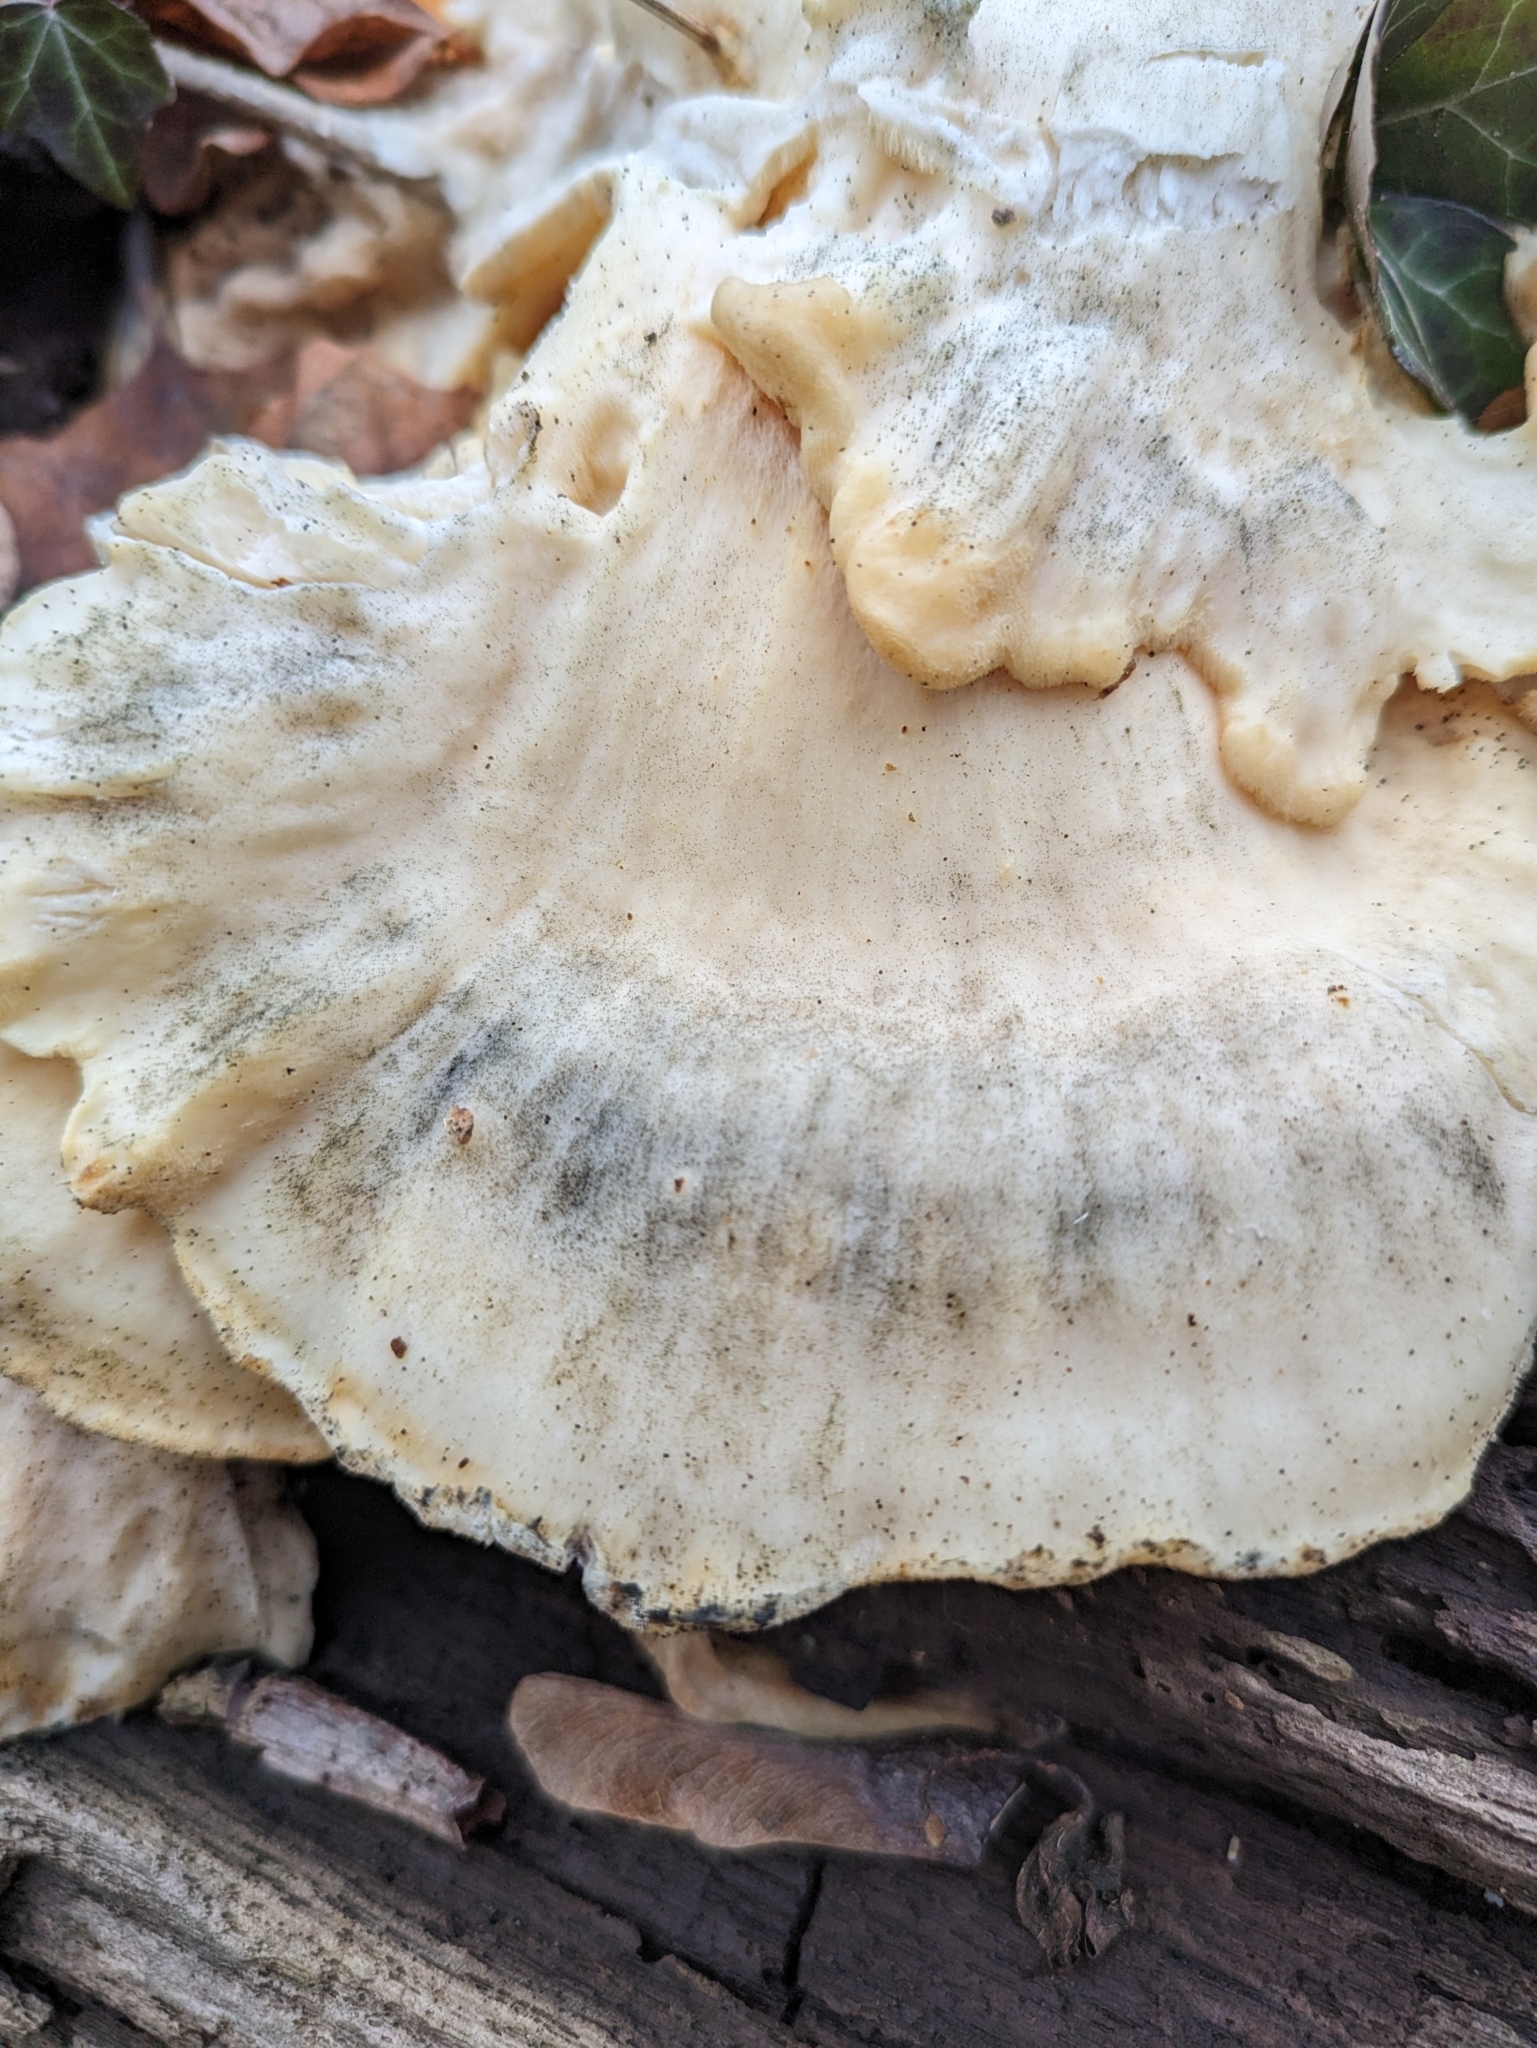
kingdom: Fungi
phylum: Basidiomycota
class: Agaricomycetes
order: Polyporales
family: Laetiporaceae
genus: Laetiporus
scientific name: Laetiporus sulphureus
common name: Chicken of the woods
